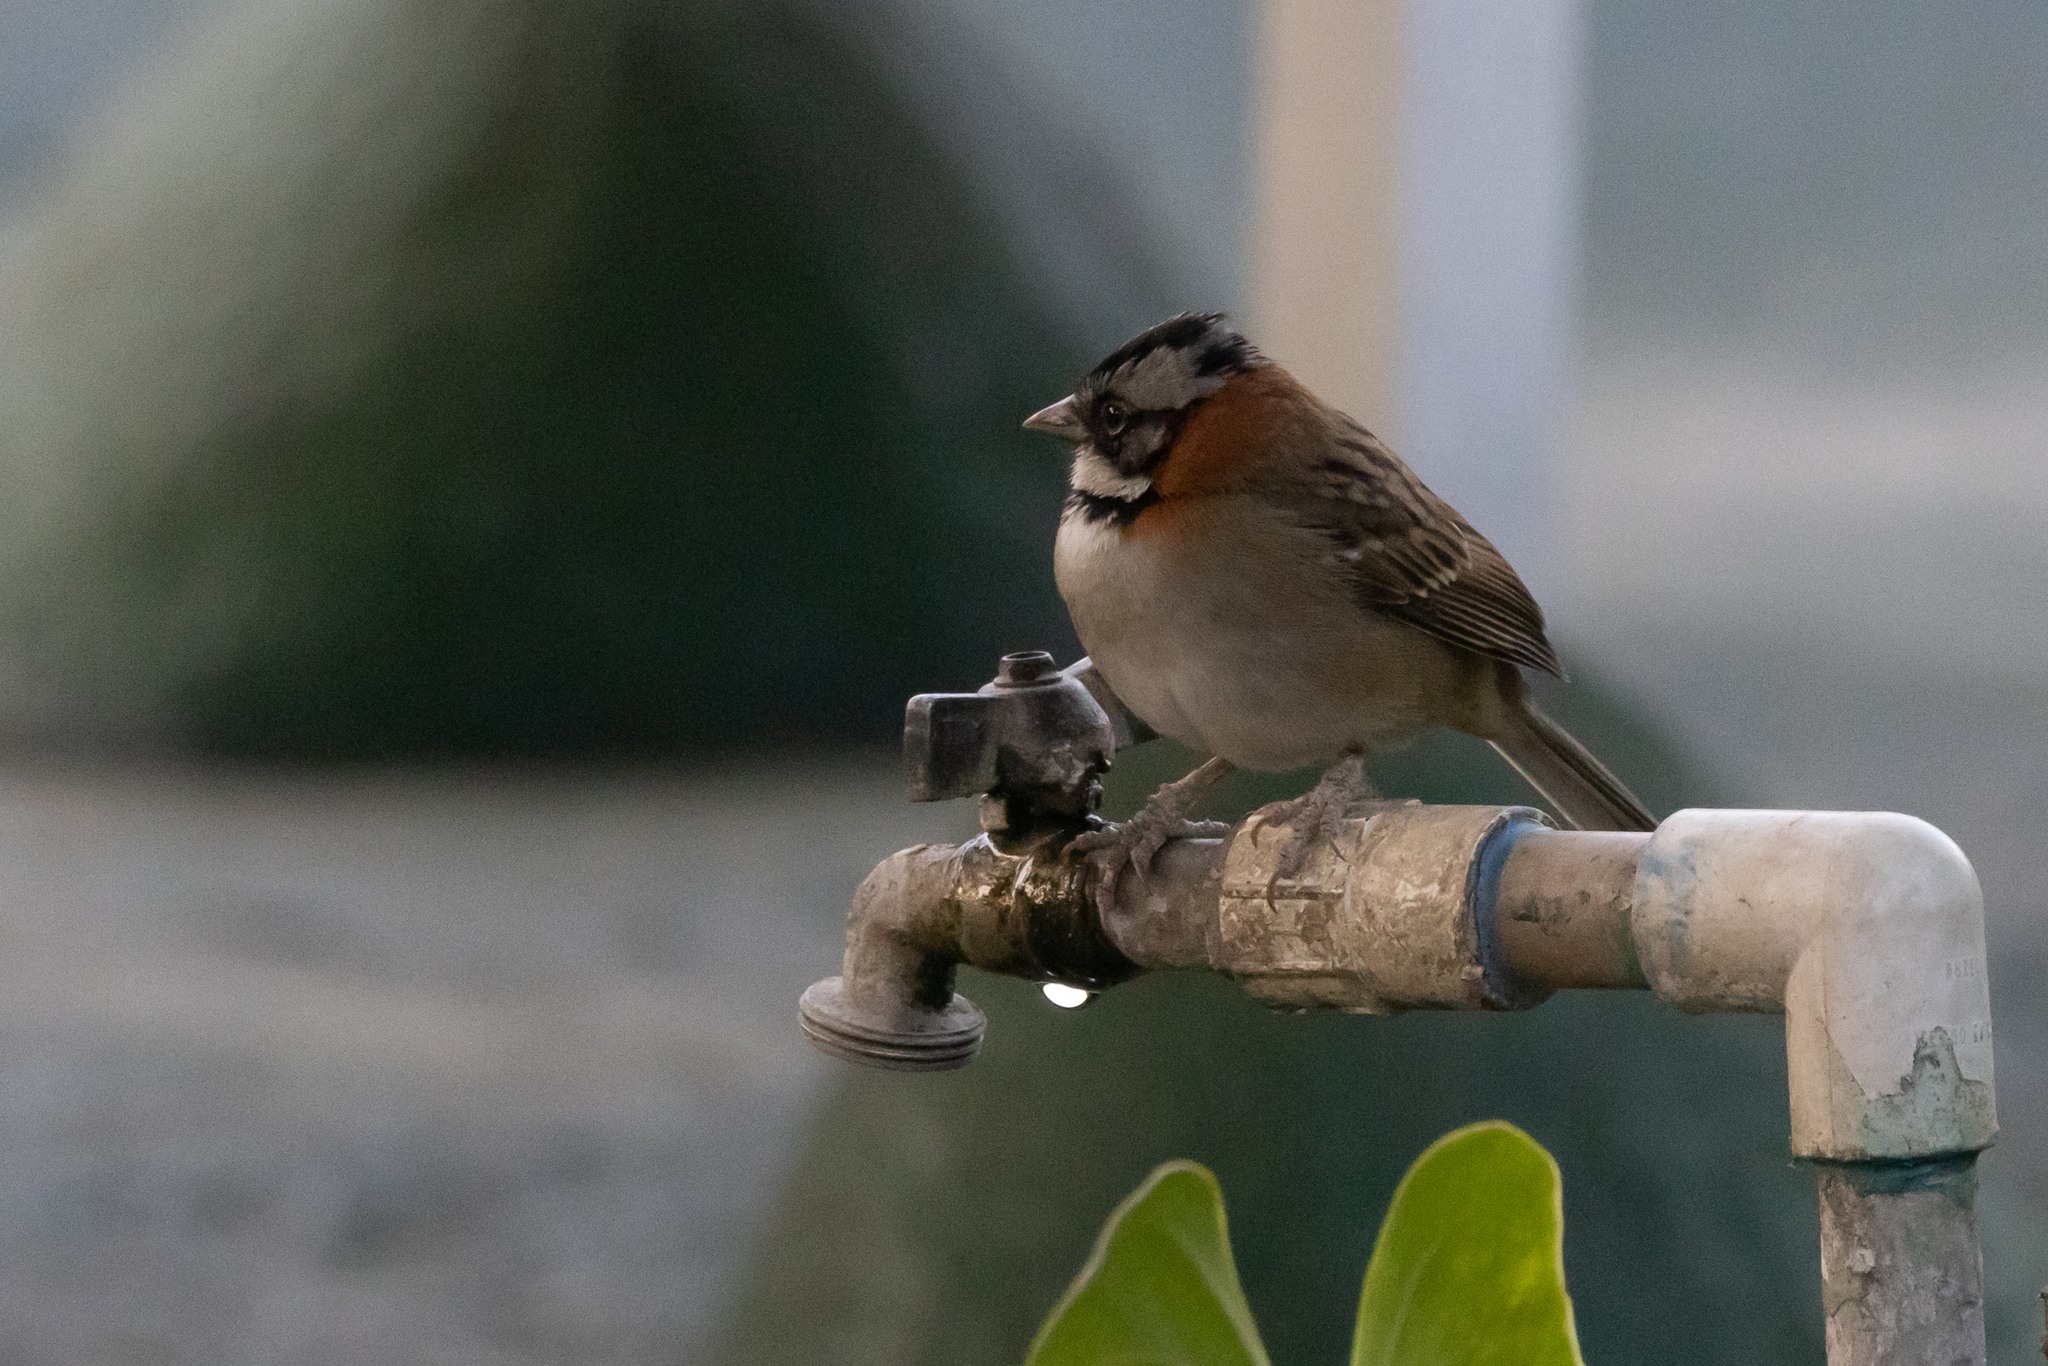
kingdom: Animalia
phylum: Chordata
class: Aves
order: Passeriformes
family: Passerellidae
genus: Zonotrichia
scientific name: Zonotrichia capensis
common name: Rufous-collared sparrow
